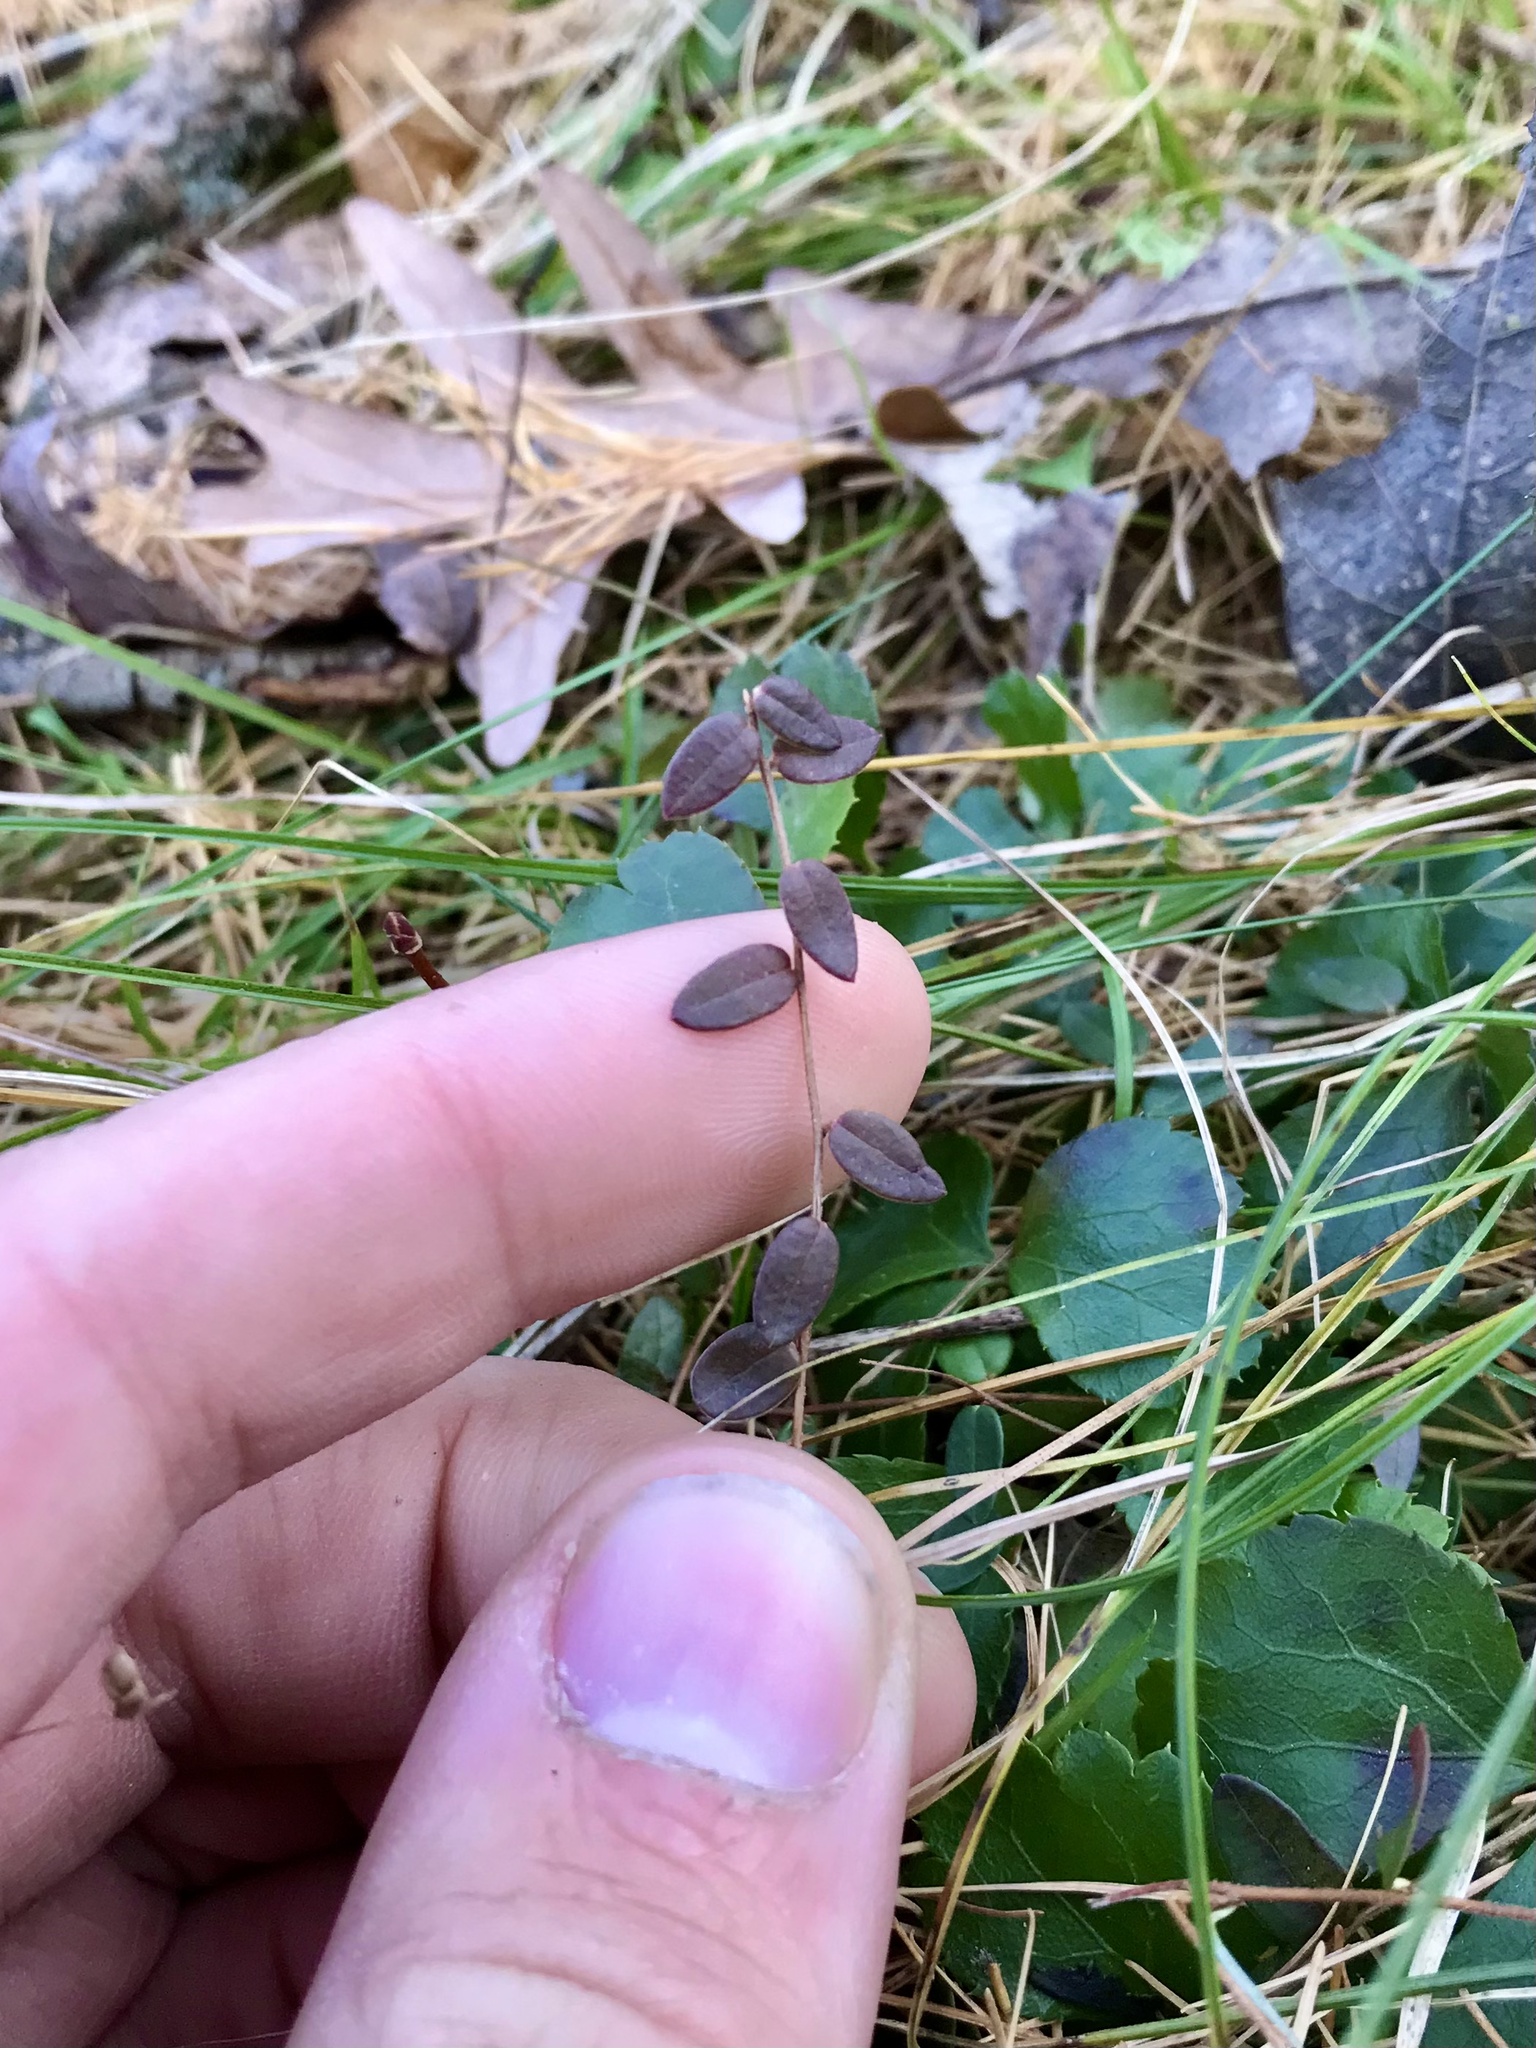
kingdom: Plantae
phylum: Tracheophyta
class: Magnoliopsida
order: Ericales
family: Ericaceae
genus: Vaccinium
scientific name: Vaccinium oxycoccos
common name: Cranberry
